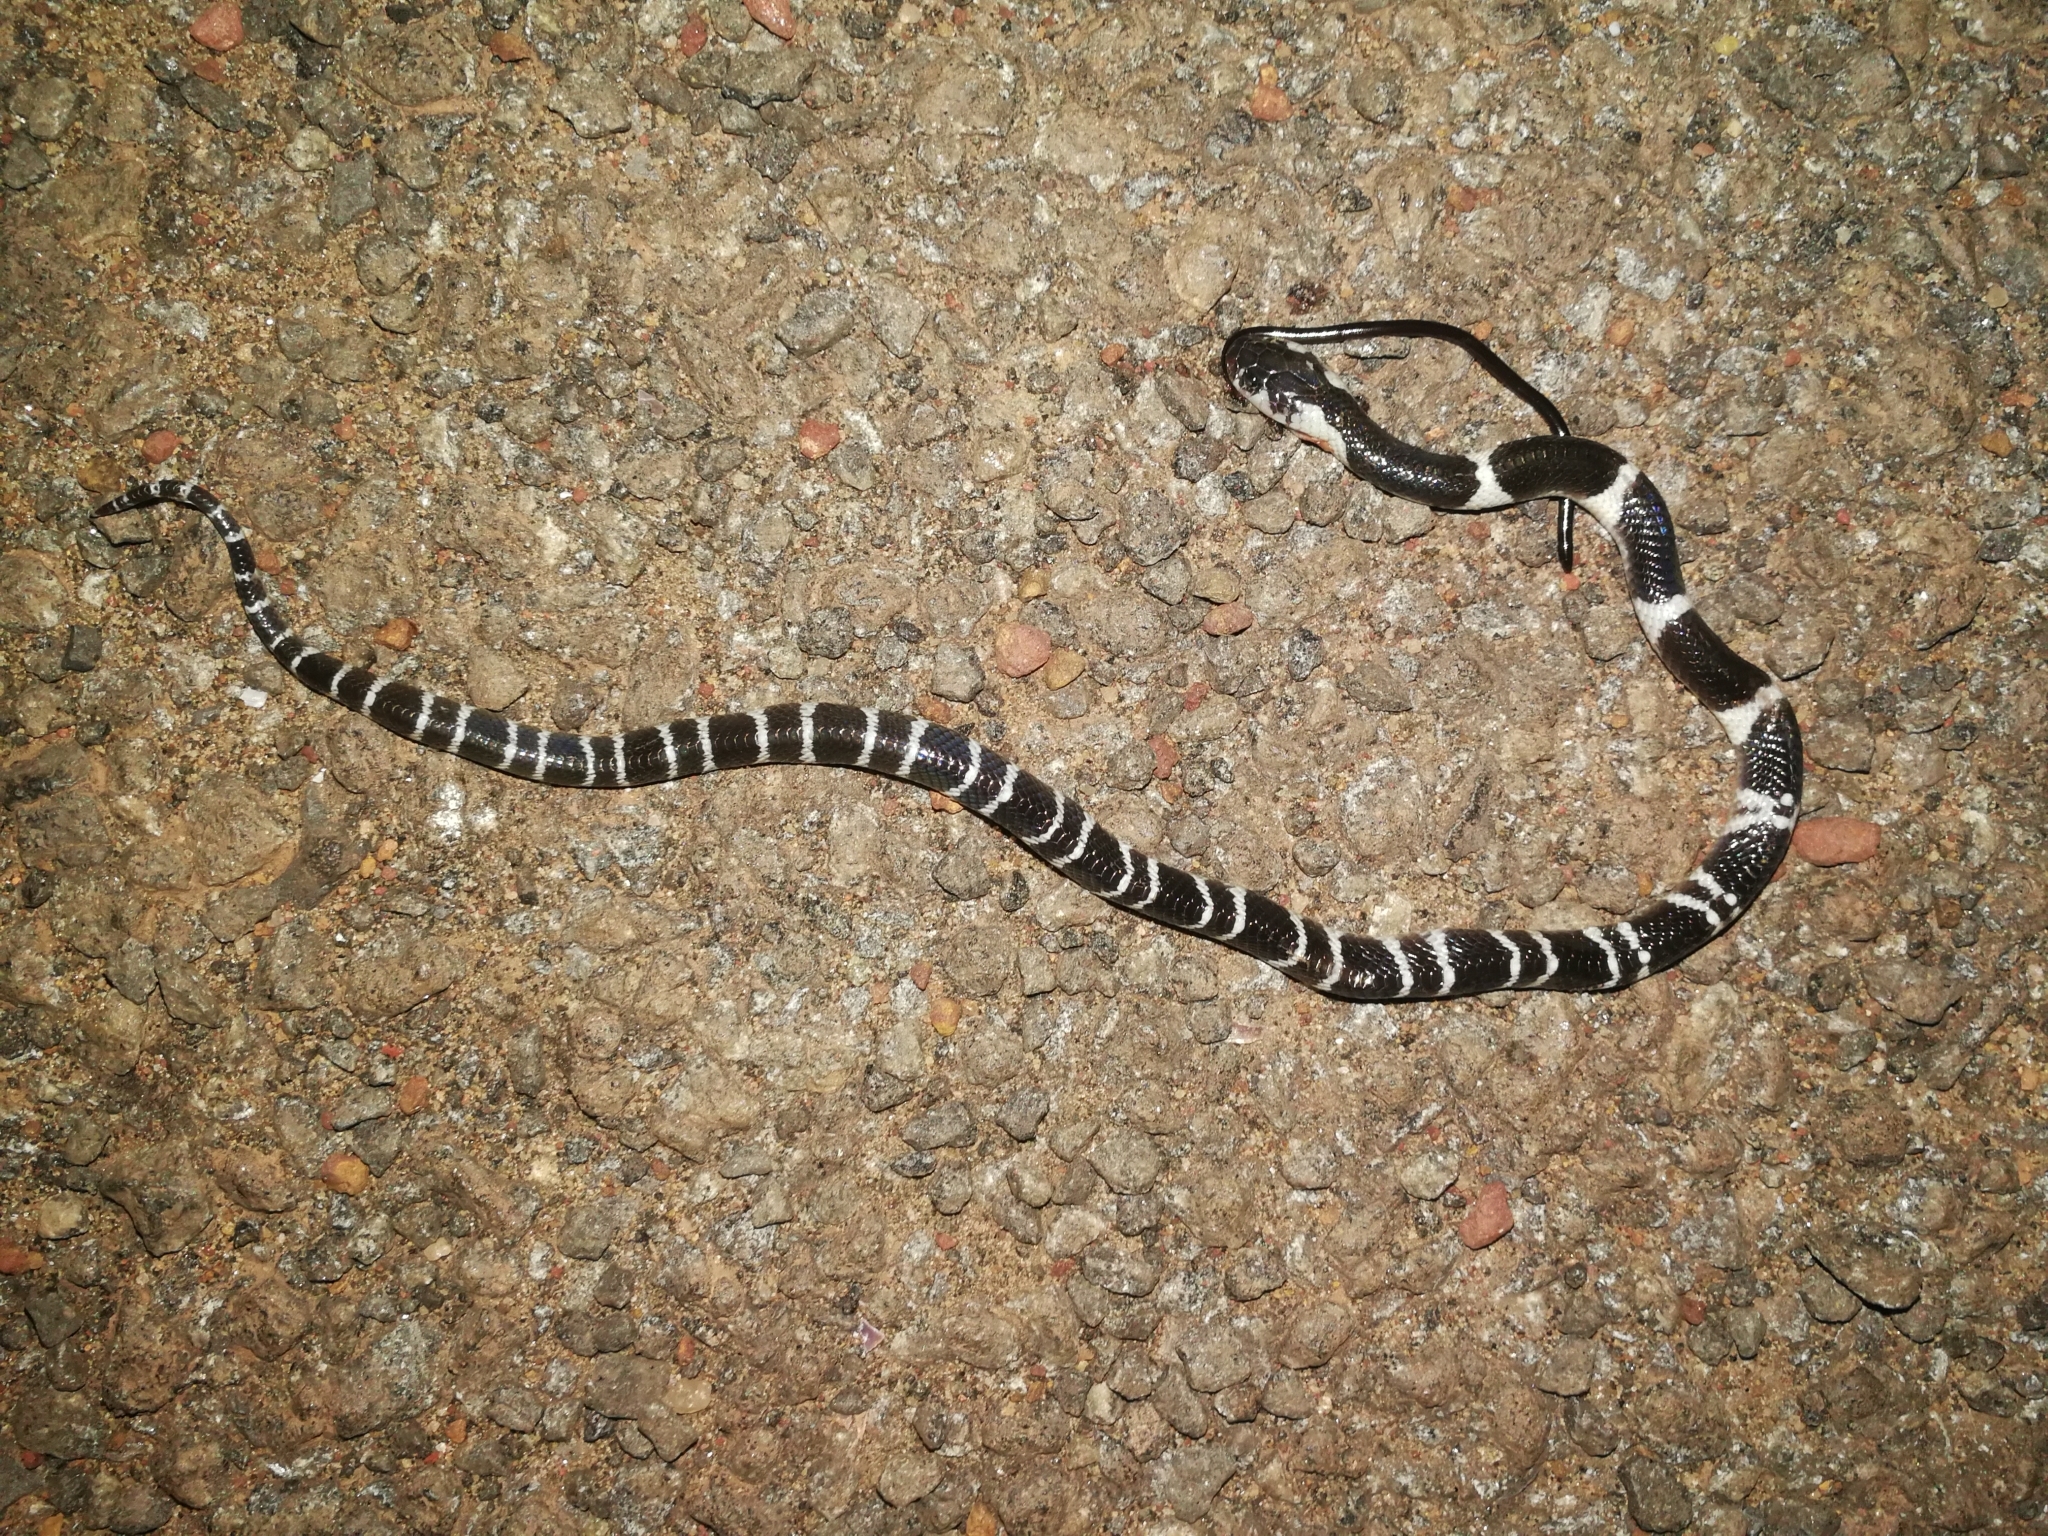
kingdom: Animalia
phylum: Chordata
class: Squamata
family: Elapidae
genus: Bungarus
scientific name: Bungarus caeruleus
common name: Common krait
